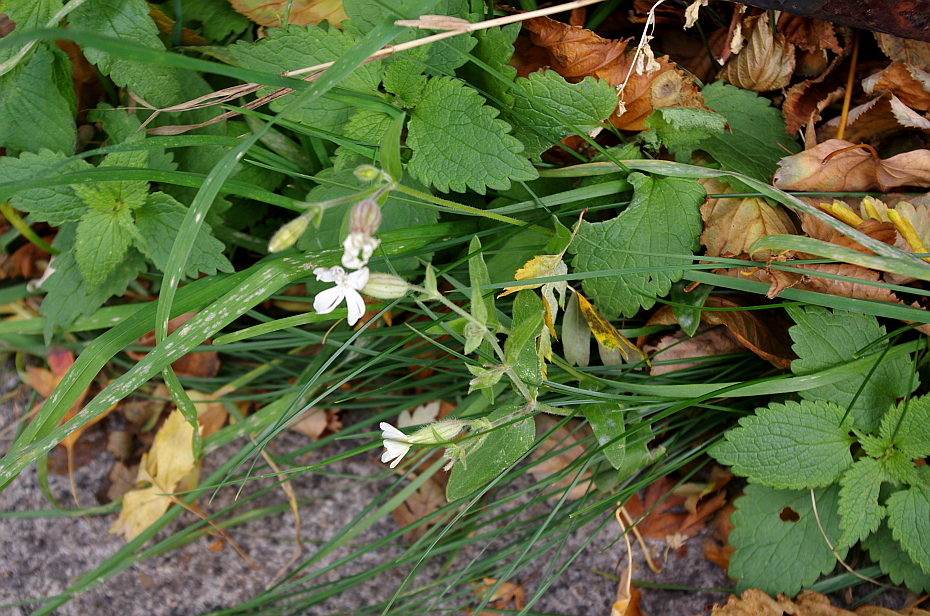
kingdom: Plantae
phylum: Tracheophyta
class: Magnoliopsida
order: Caryophyllales
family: Caryophyllaceae
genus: Silene
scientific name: Silene latifolia
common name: White campion
